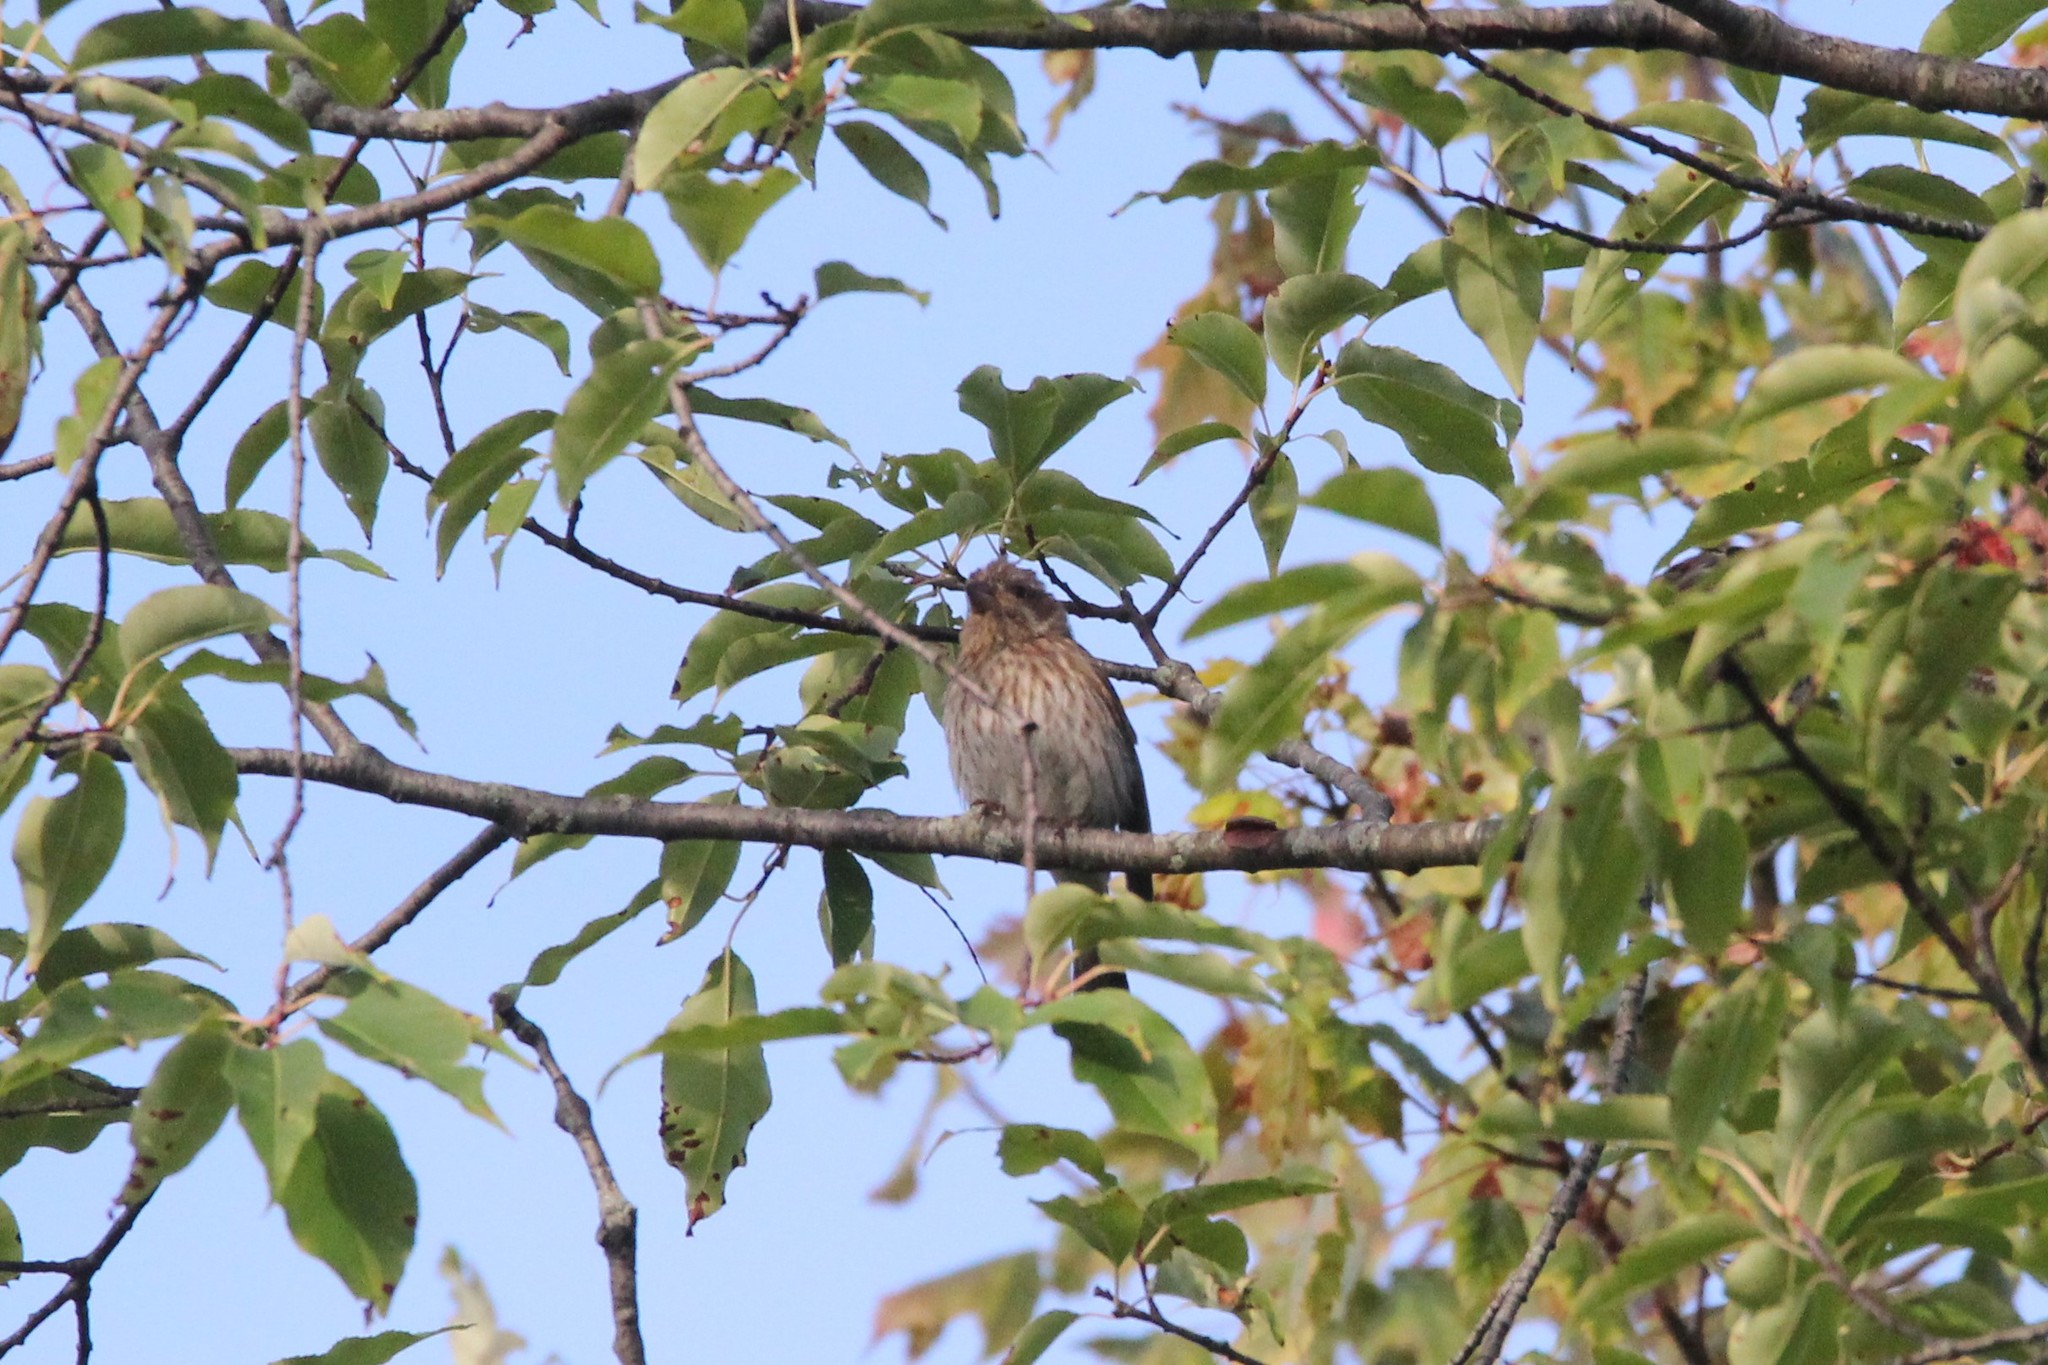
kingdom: Animalia
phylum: Chordata
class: Aves
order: Passeriformes
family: Fringillidae
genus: Haemorhous
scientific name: Haemorhous purpureus
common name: Purple finch
